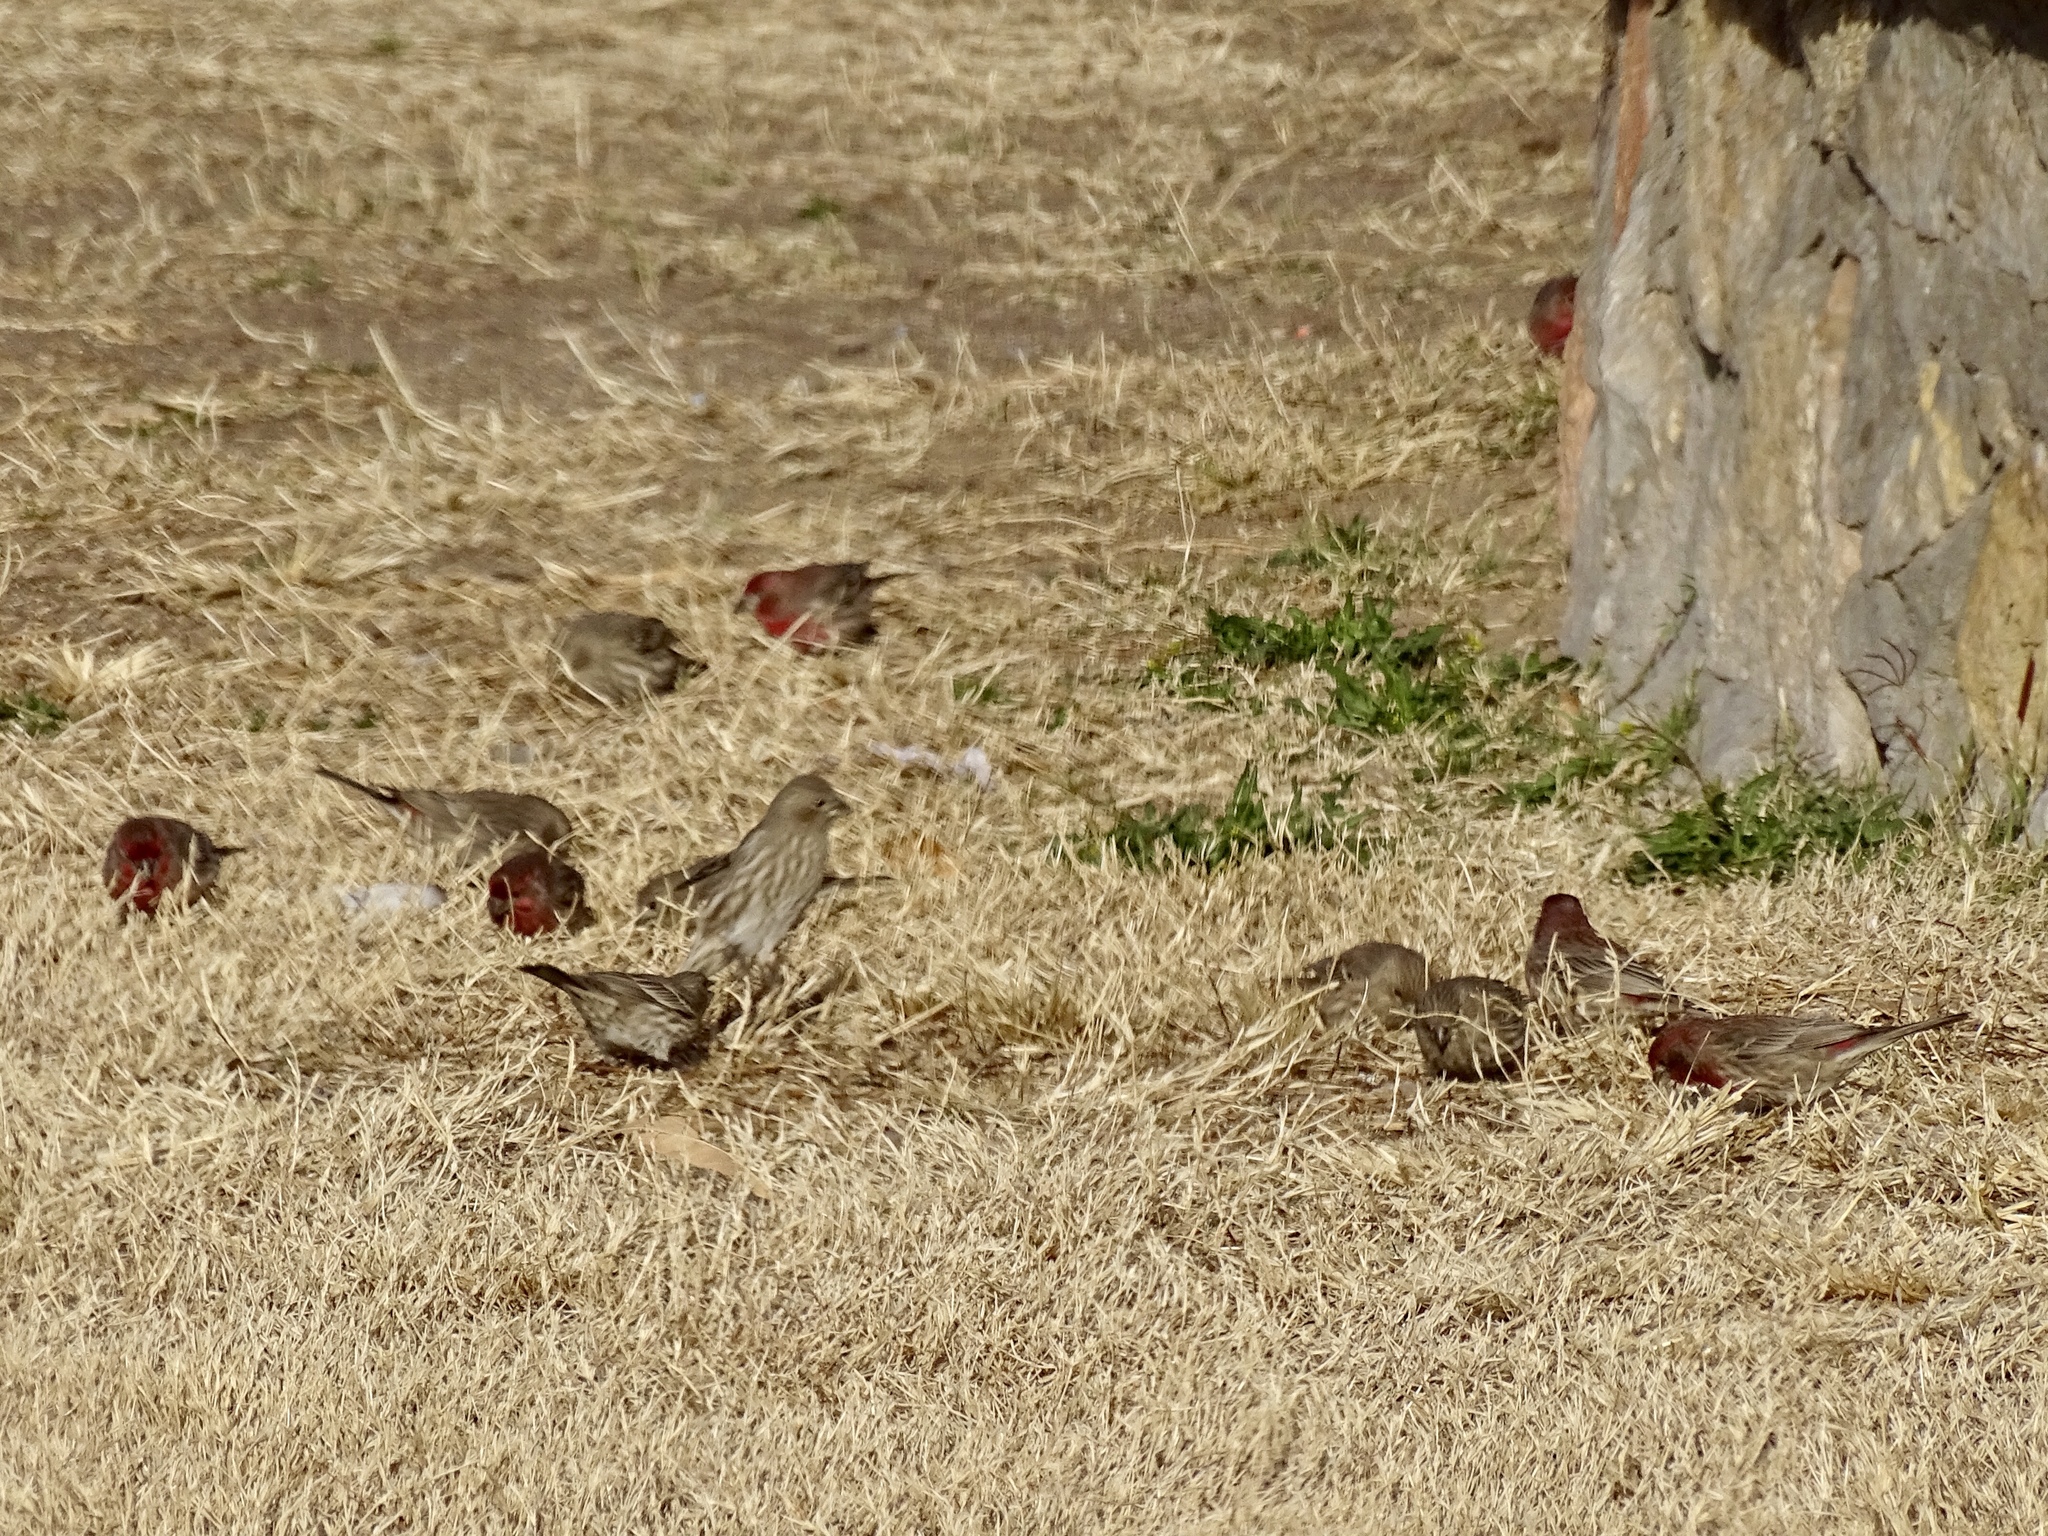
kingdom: Animalia
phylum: Chordata
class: Aves
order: Passeriformes
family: Fringillidae
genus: Haemorhous
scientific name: Haemorhous mexicanus
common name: House finch
